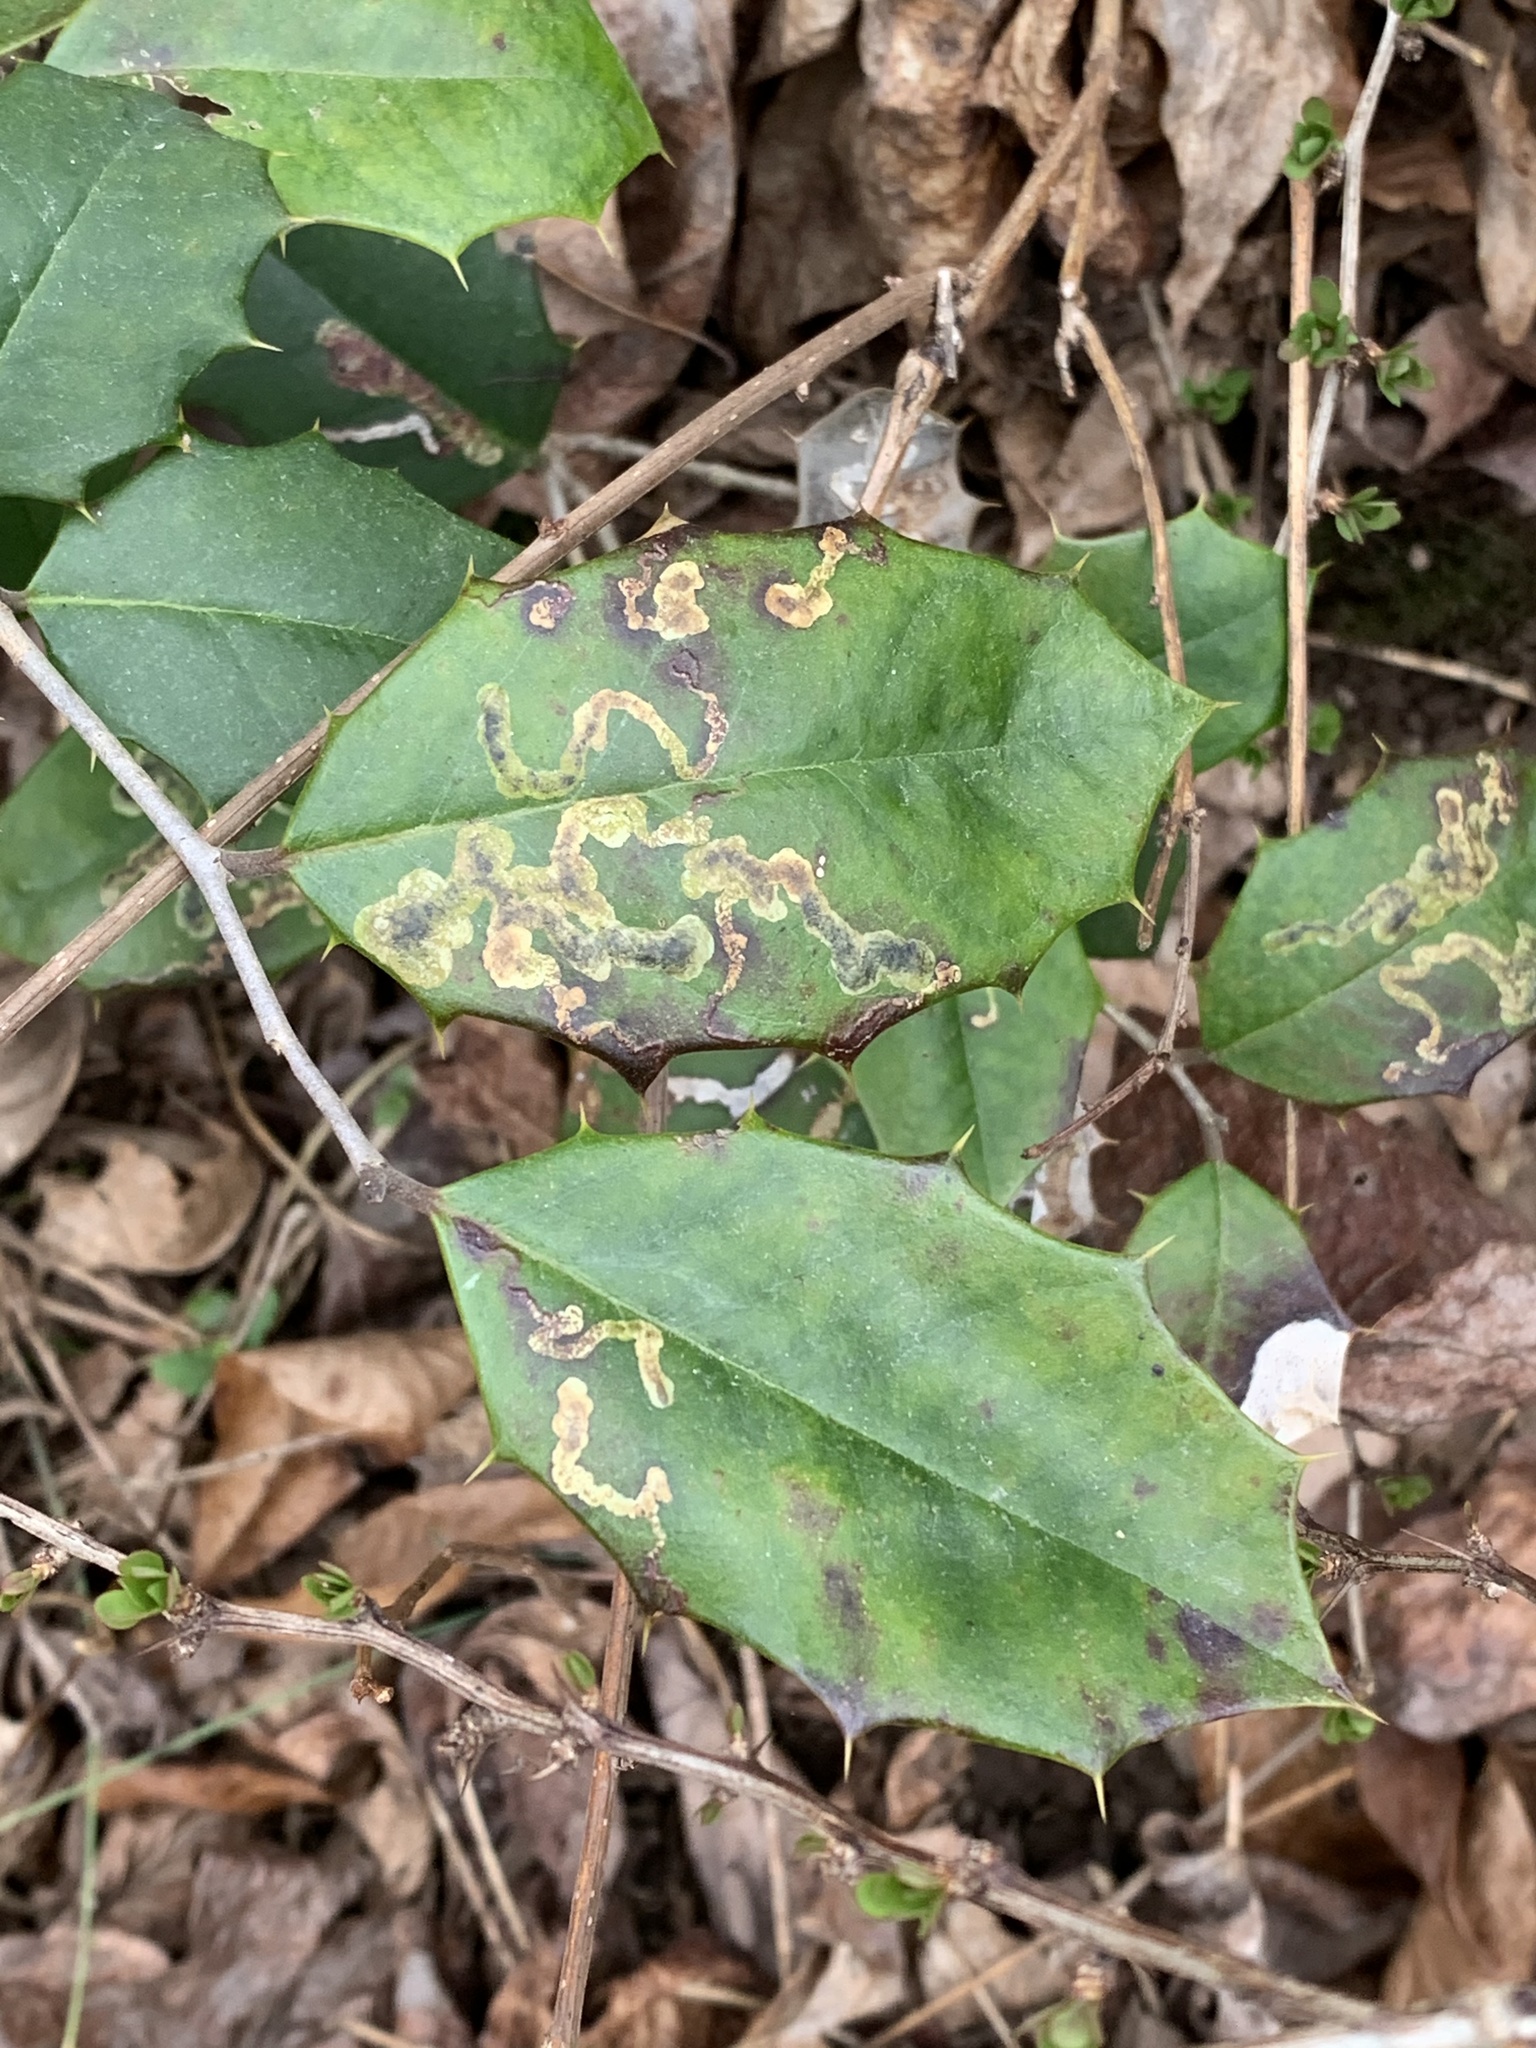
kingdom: Animalia
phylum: Arthropoda
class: Insecta
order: Diptera
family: Agromyzidae
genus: Phytomyza
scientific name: Phytomyza ilicicola
